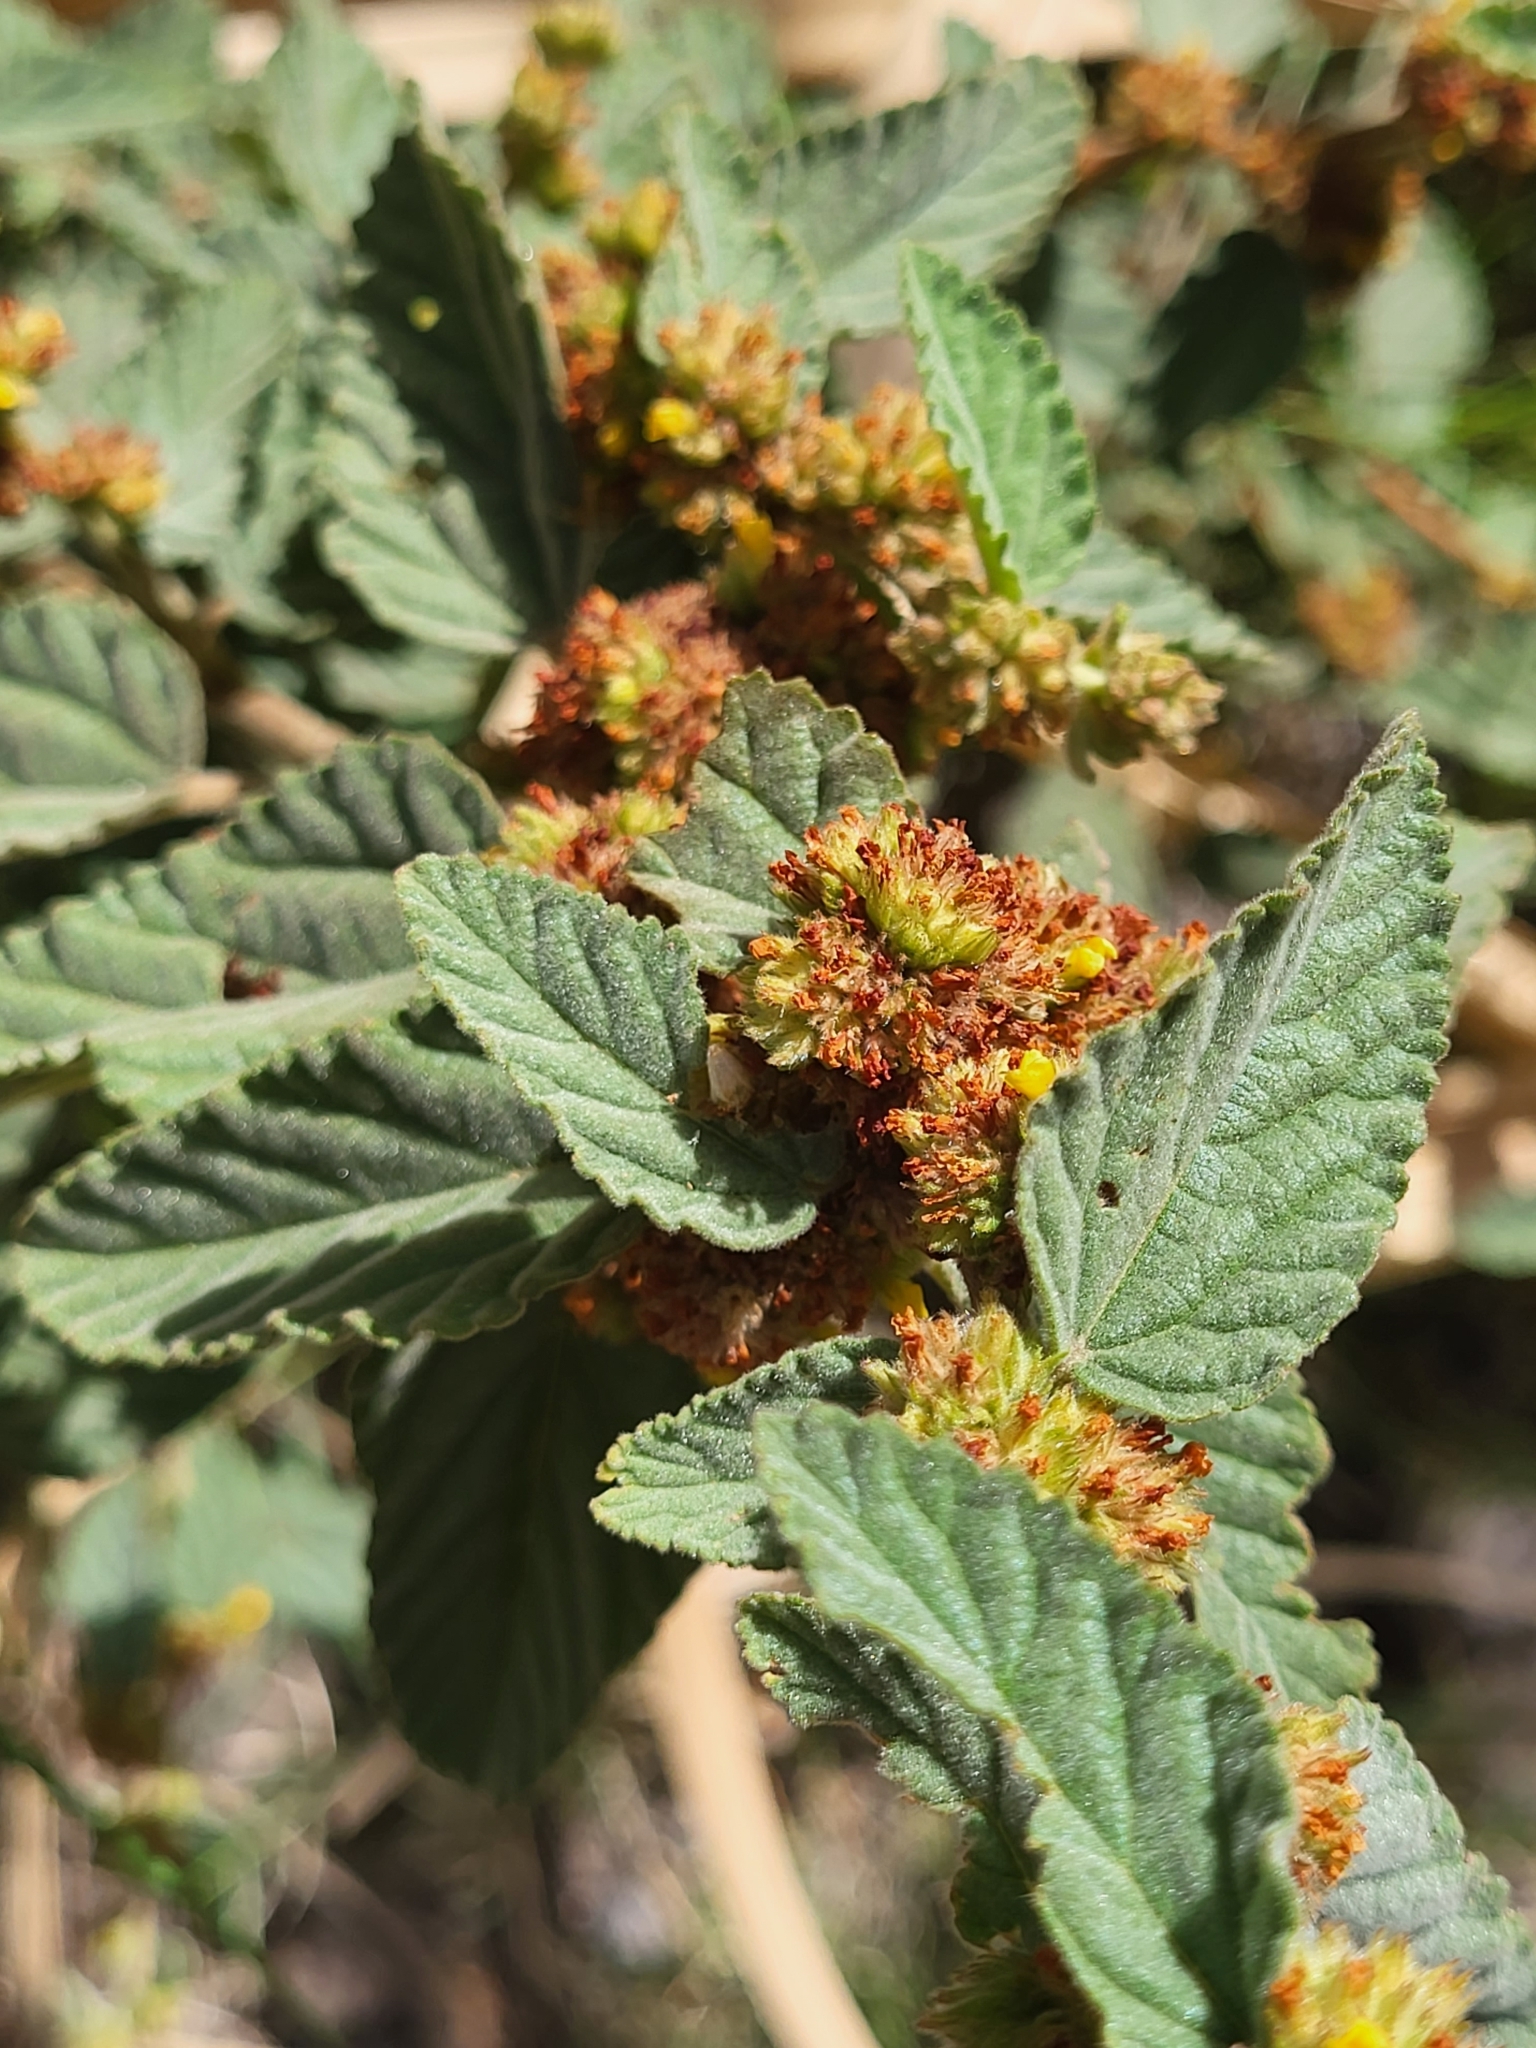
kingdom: Plantae
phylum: Tracheophyta
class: Magnoliopsida
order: Malvales
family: Malvaceae
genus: Waltheria
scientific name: Waltheria indica
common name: Leather-coat
